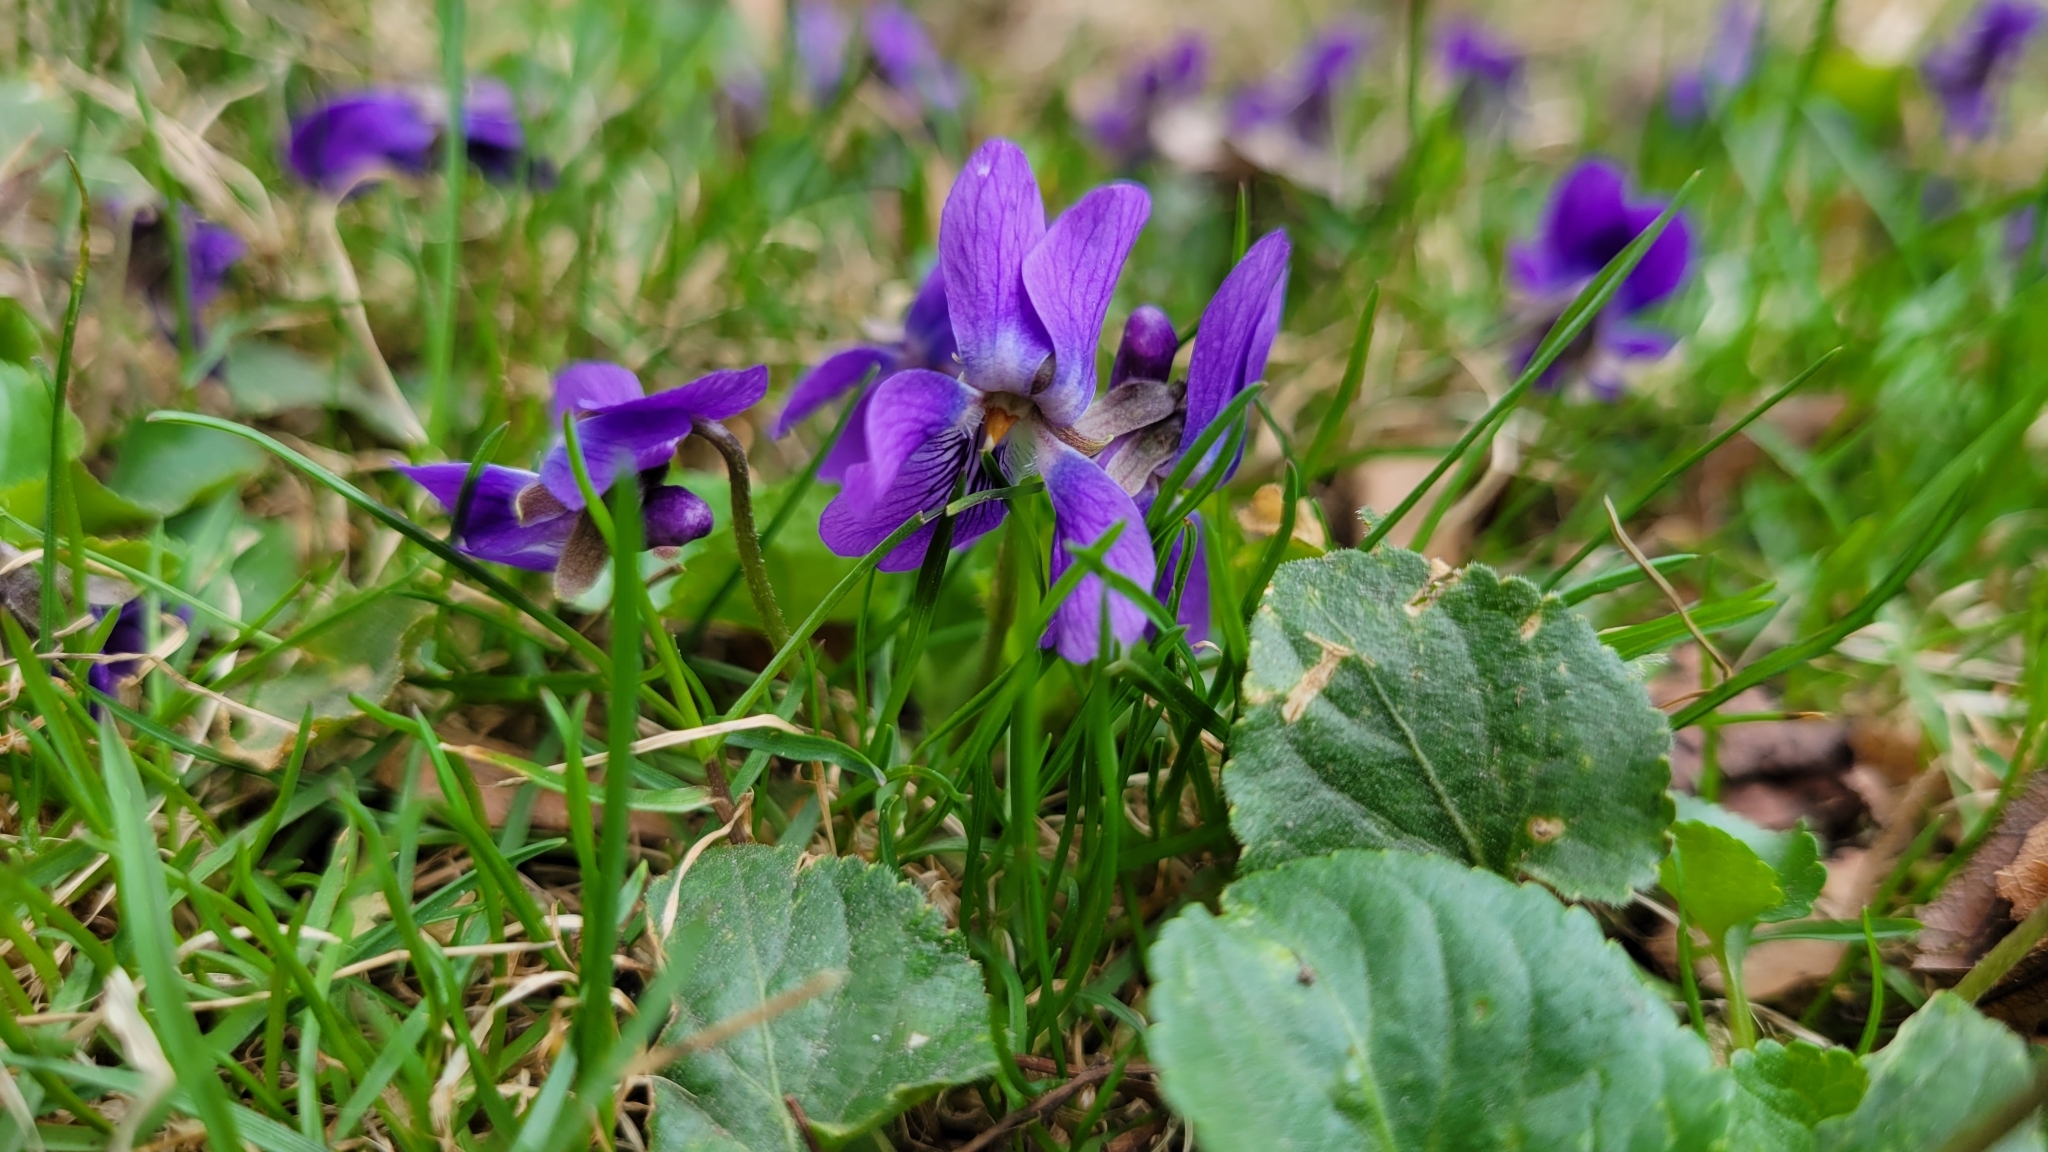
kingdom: Plantae
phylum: Tracheophyta
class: Magnoliopsida
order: Malpighiales
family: Violaceae
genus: Viola
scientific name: Viola odorata
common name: Sweet violet
